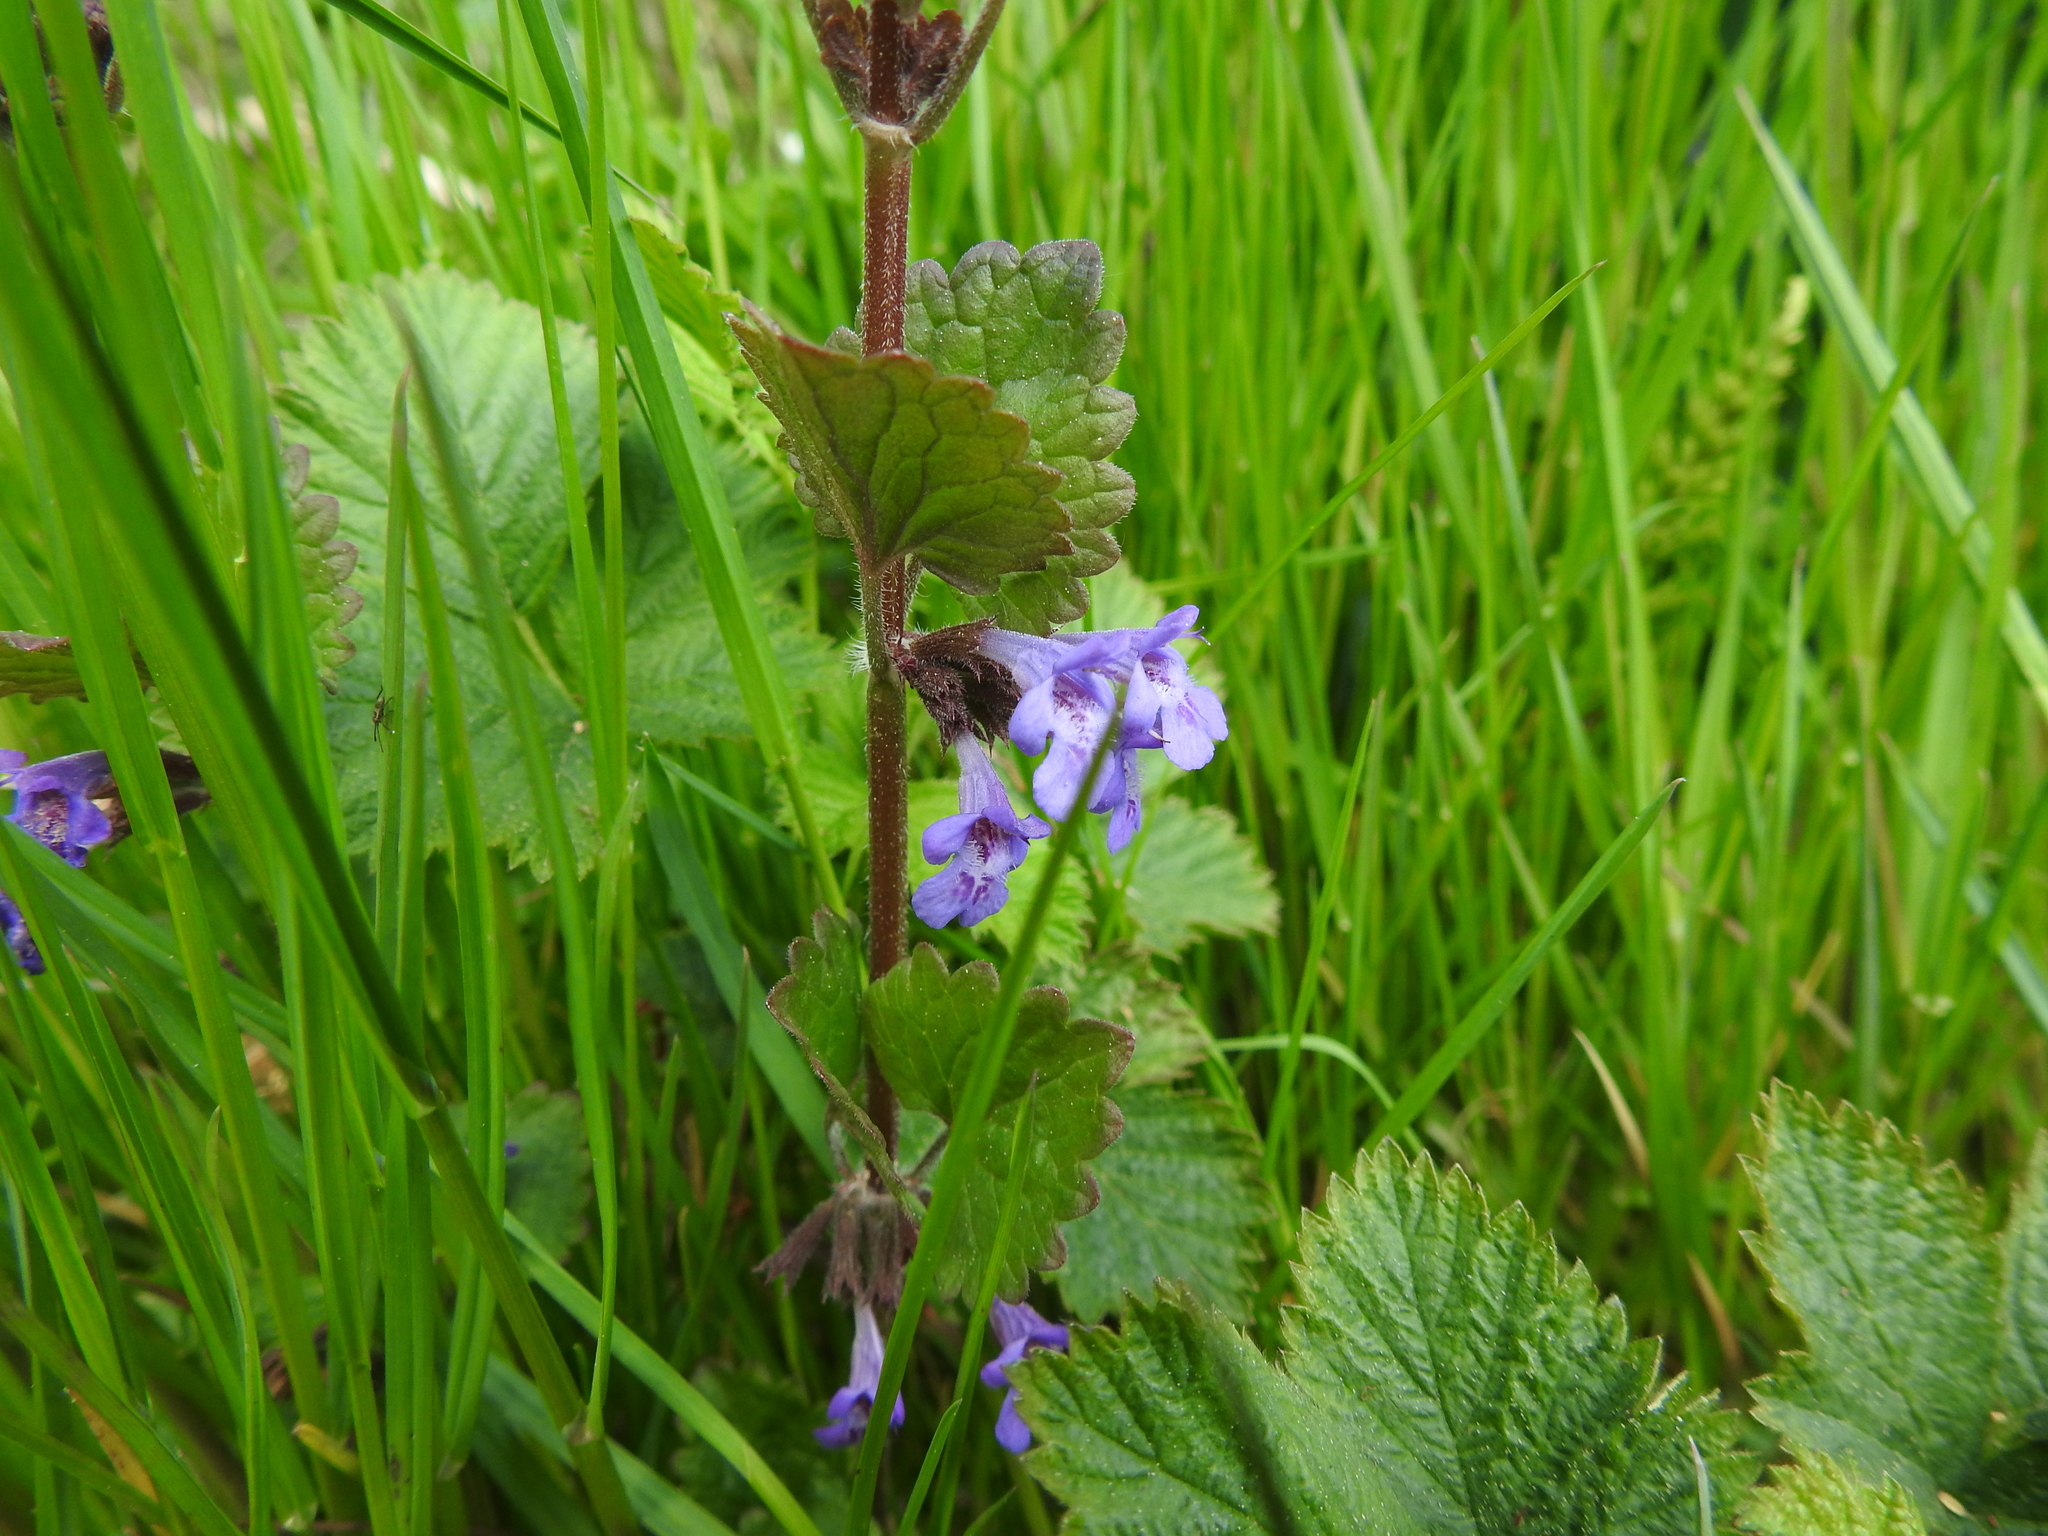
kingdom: Plantae
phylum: Tracheophyta
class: Magnoliopsida
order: Lamiales
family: Lamiaceae
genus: Glechoma
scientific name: Glechoma hederacea
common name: Ground ivy
